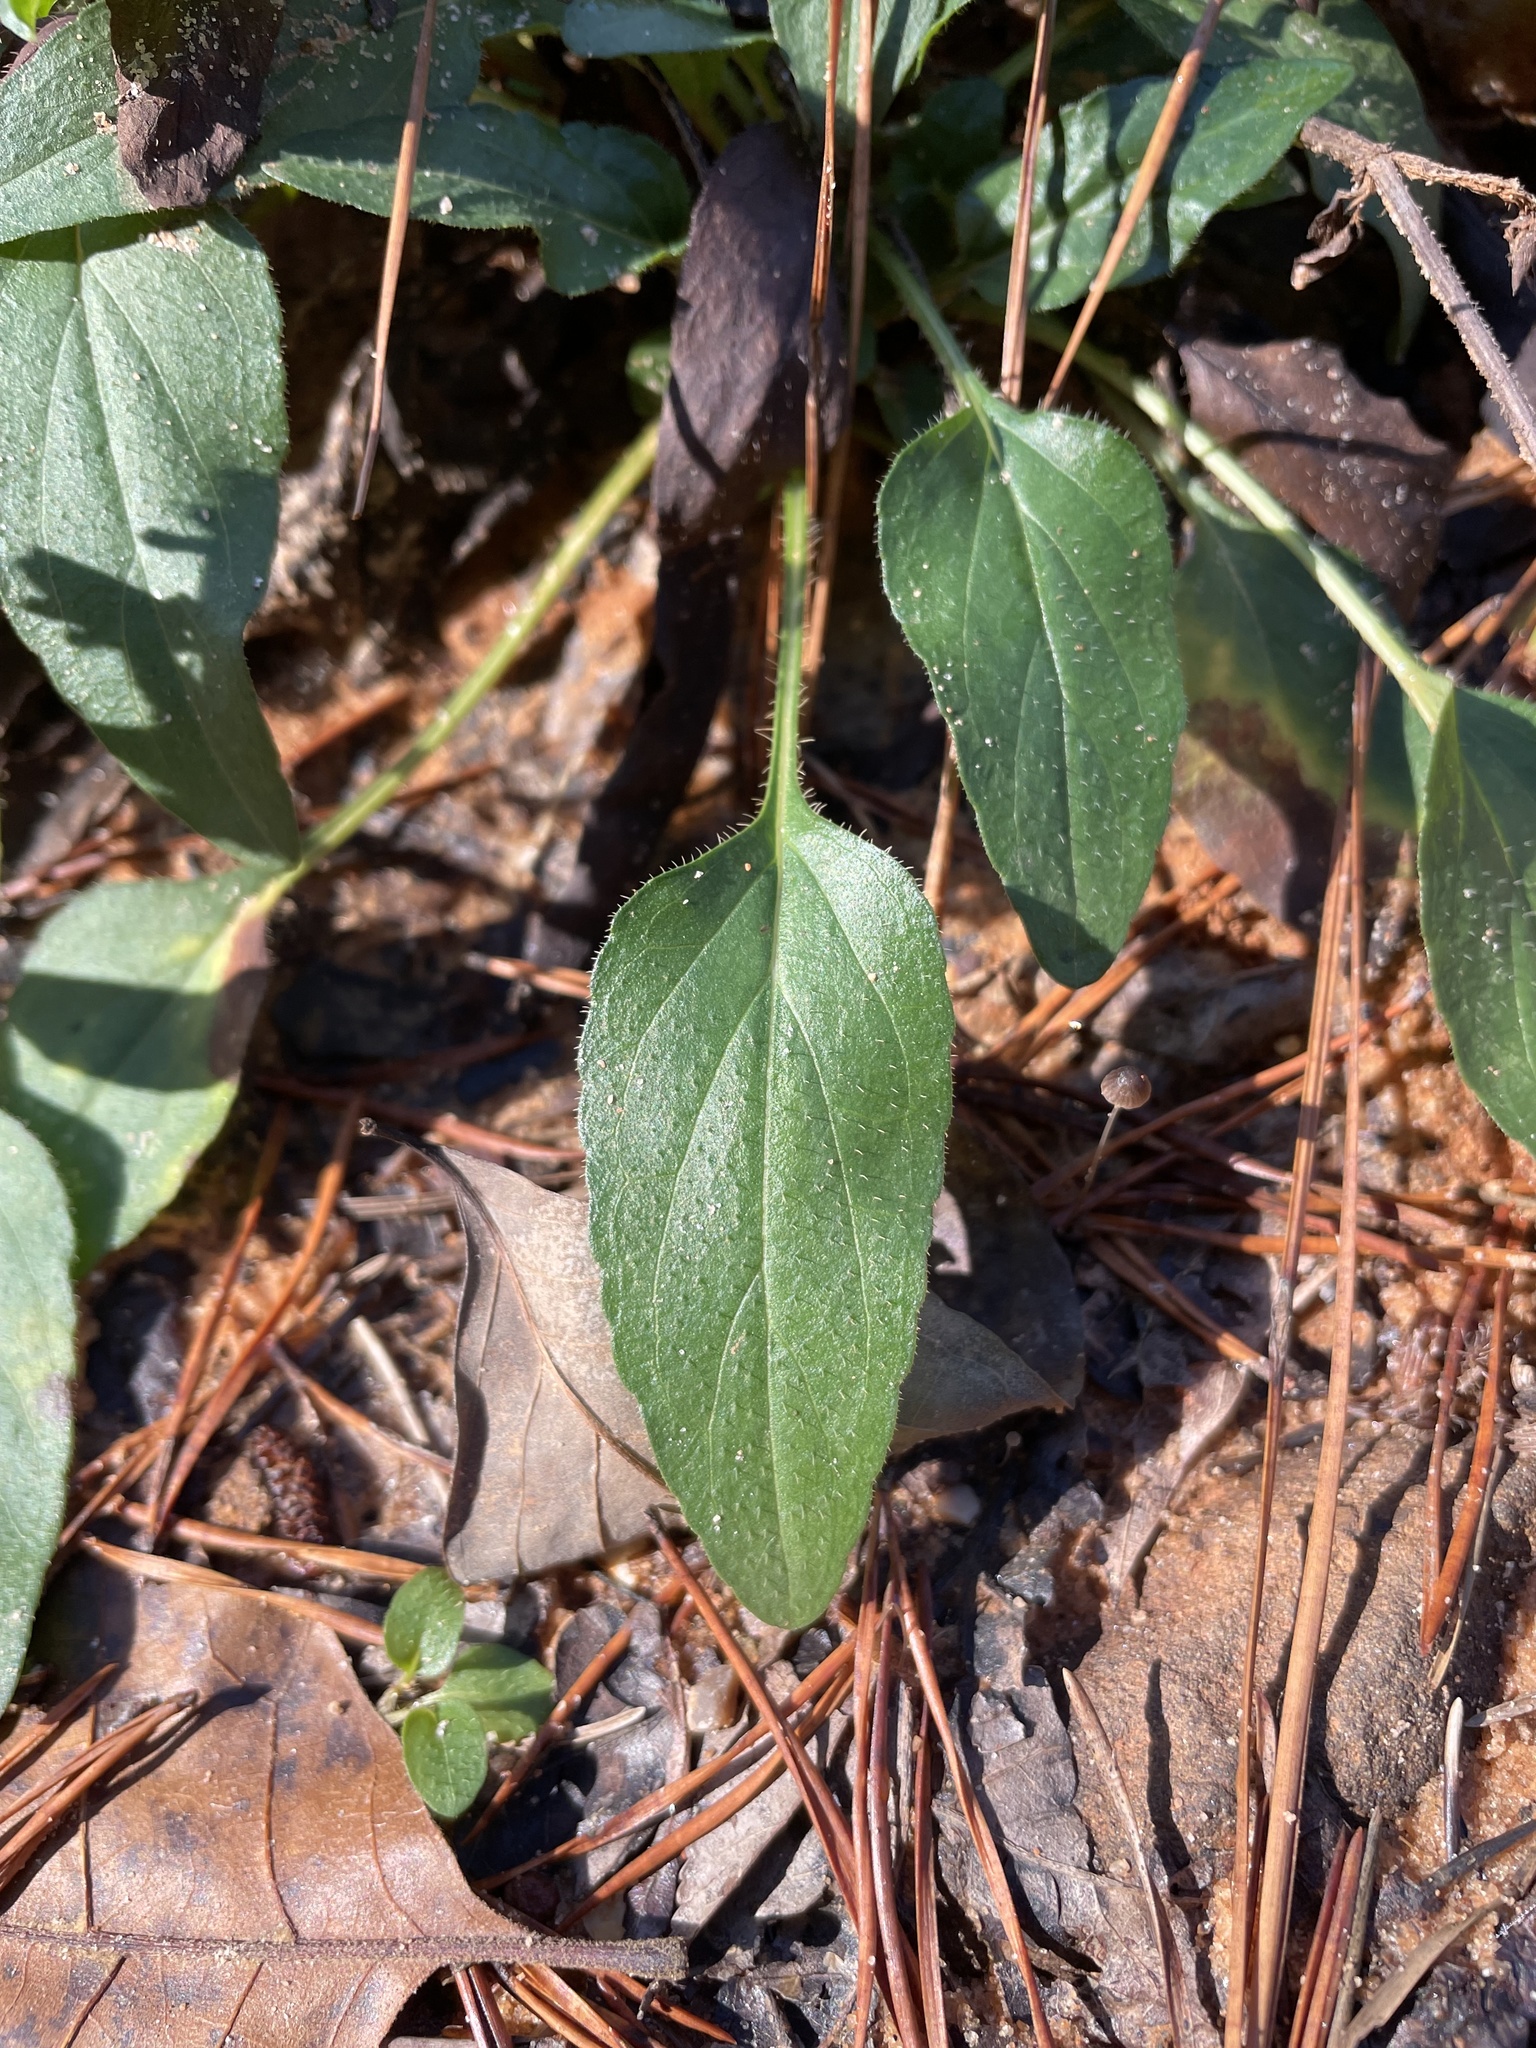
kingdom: Plantae
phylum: Tracheophyta
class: Magnoliopsida
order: Lamiales
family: Lamiaceae
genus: Prunella
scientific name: Prunella vulgaris
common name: Heal-all
